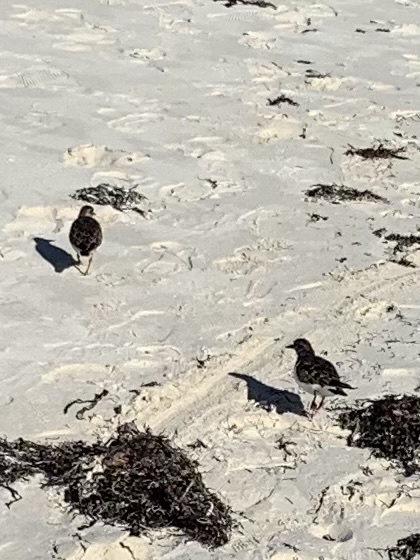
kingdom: Animalia
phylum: Chordata
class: Aves
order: Charadriiformes
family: Scolopacidae
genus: Arenaria
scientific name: Arenaria interpres
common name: Ruddy turnstone
